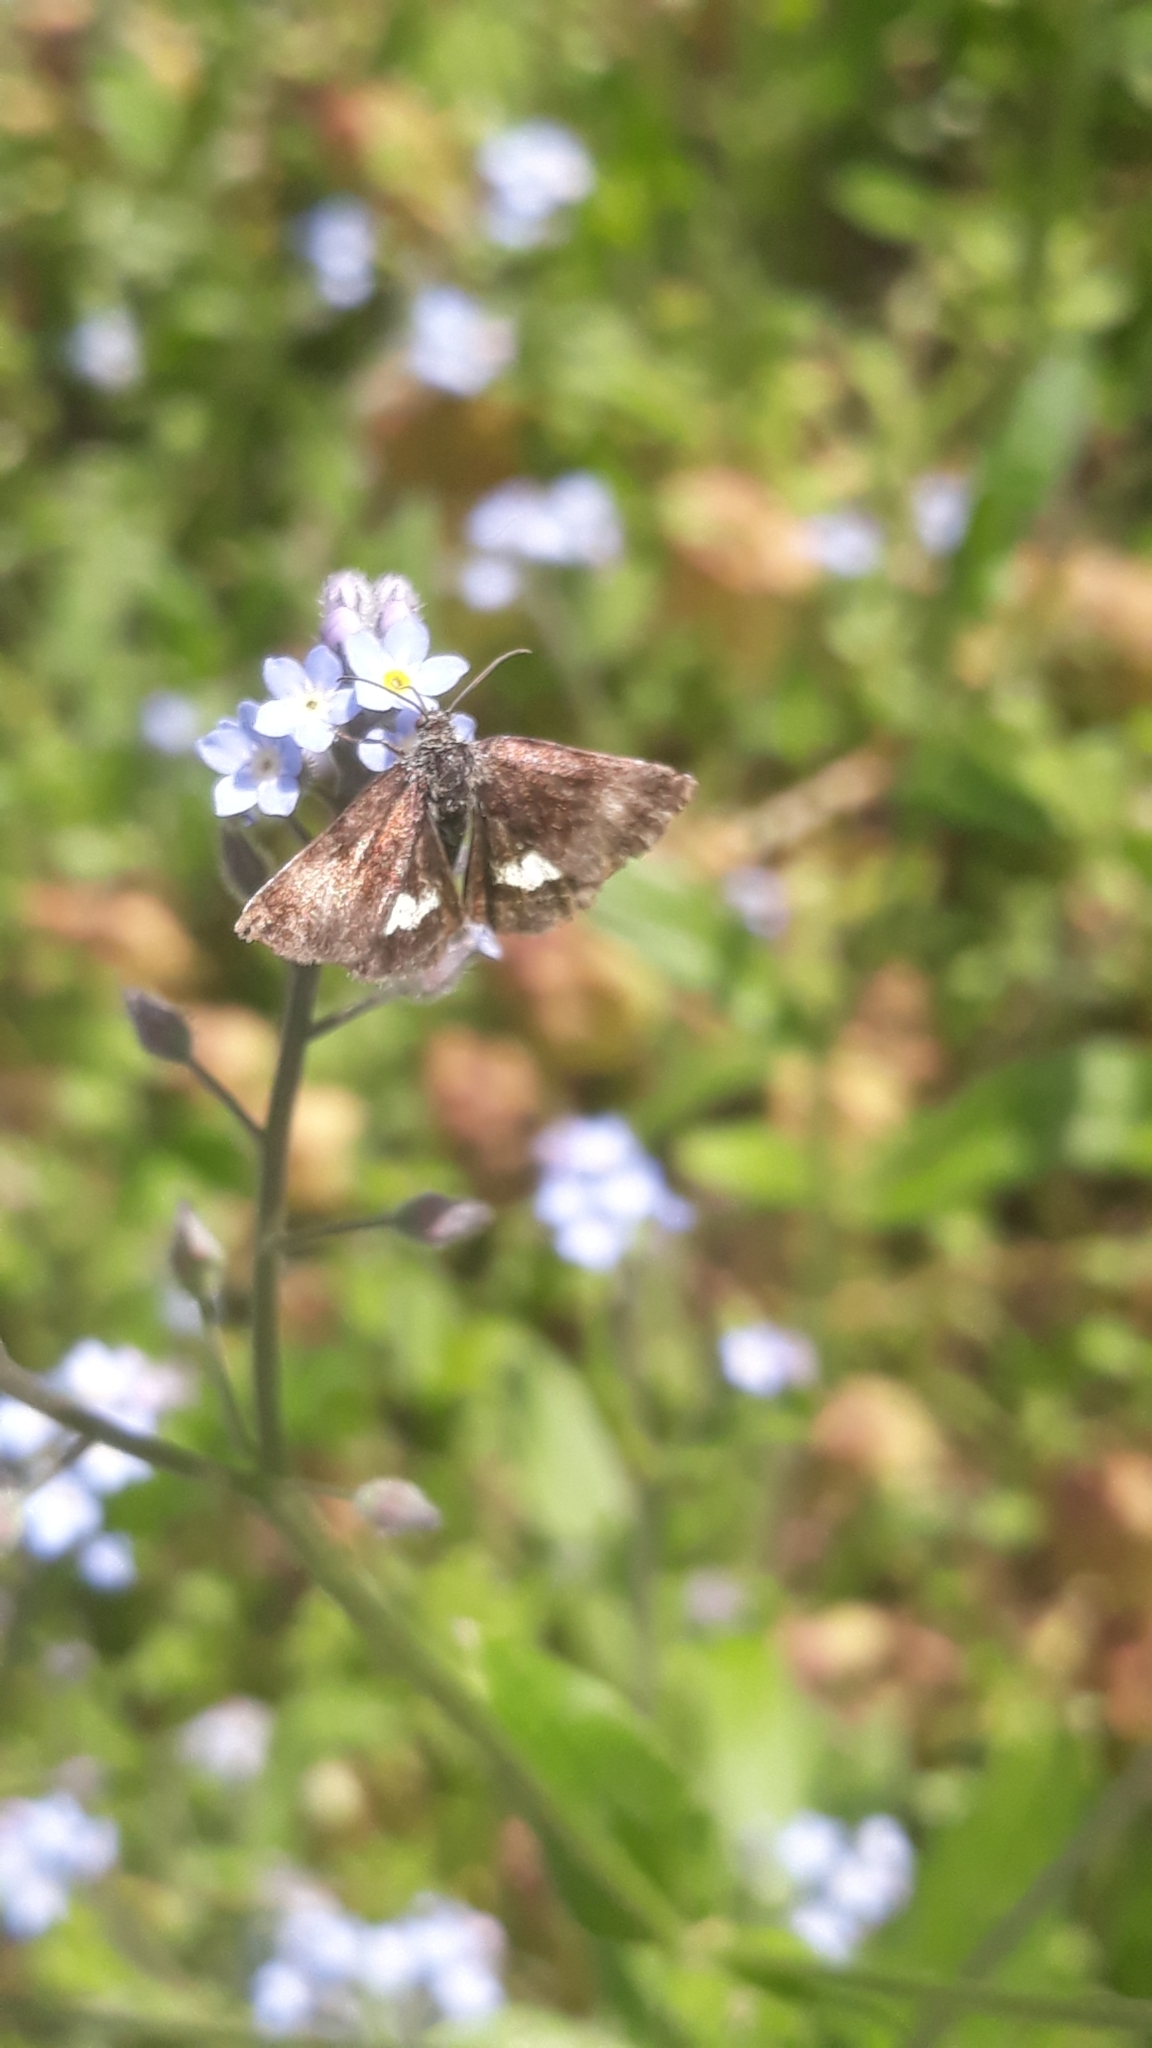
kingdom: Animalia
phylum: Arthropoda
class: Insecta
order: Lepidoptera
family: Noctuidae
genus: Panemeria
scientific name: Panemeria tenebrata
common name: Small yellow underwing
